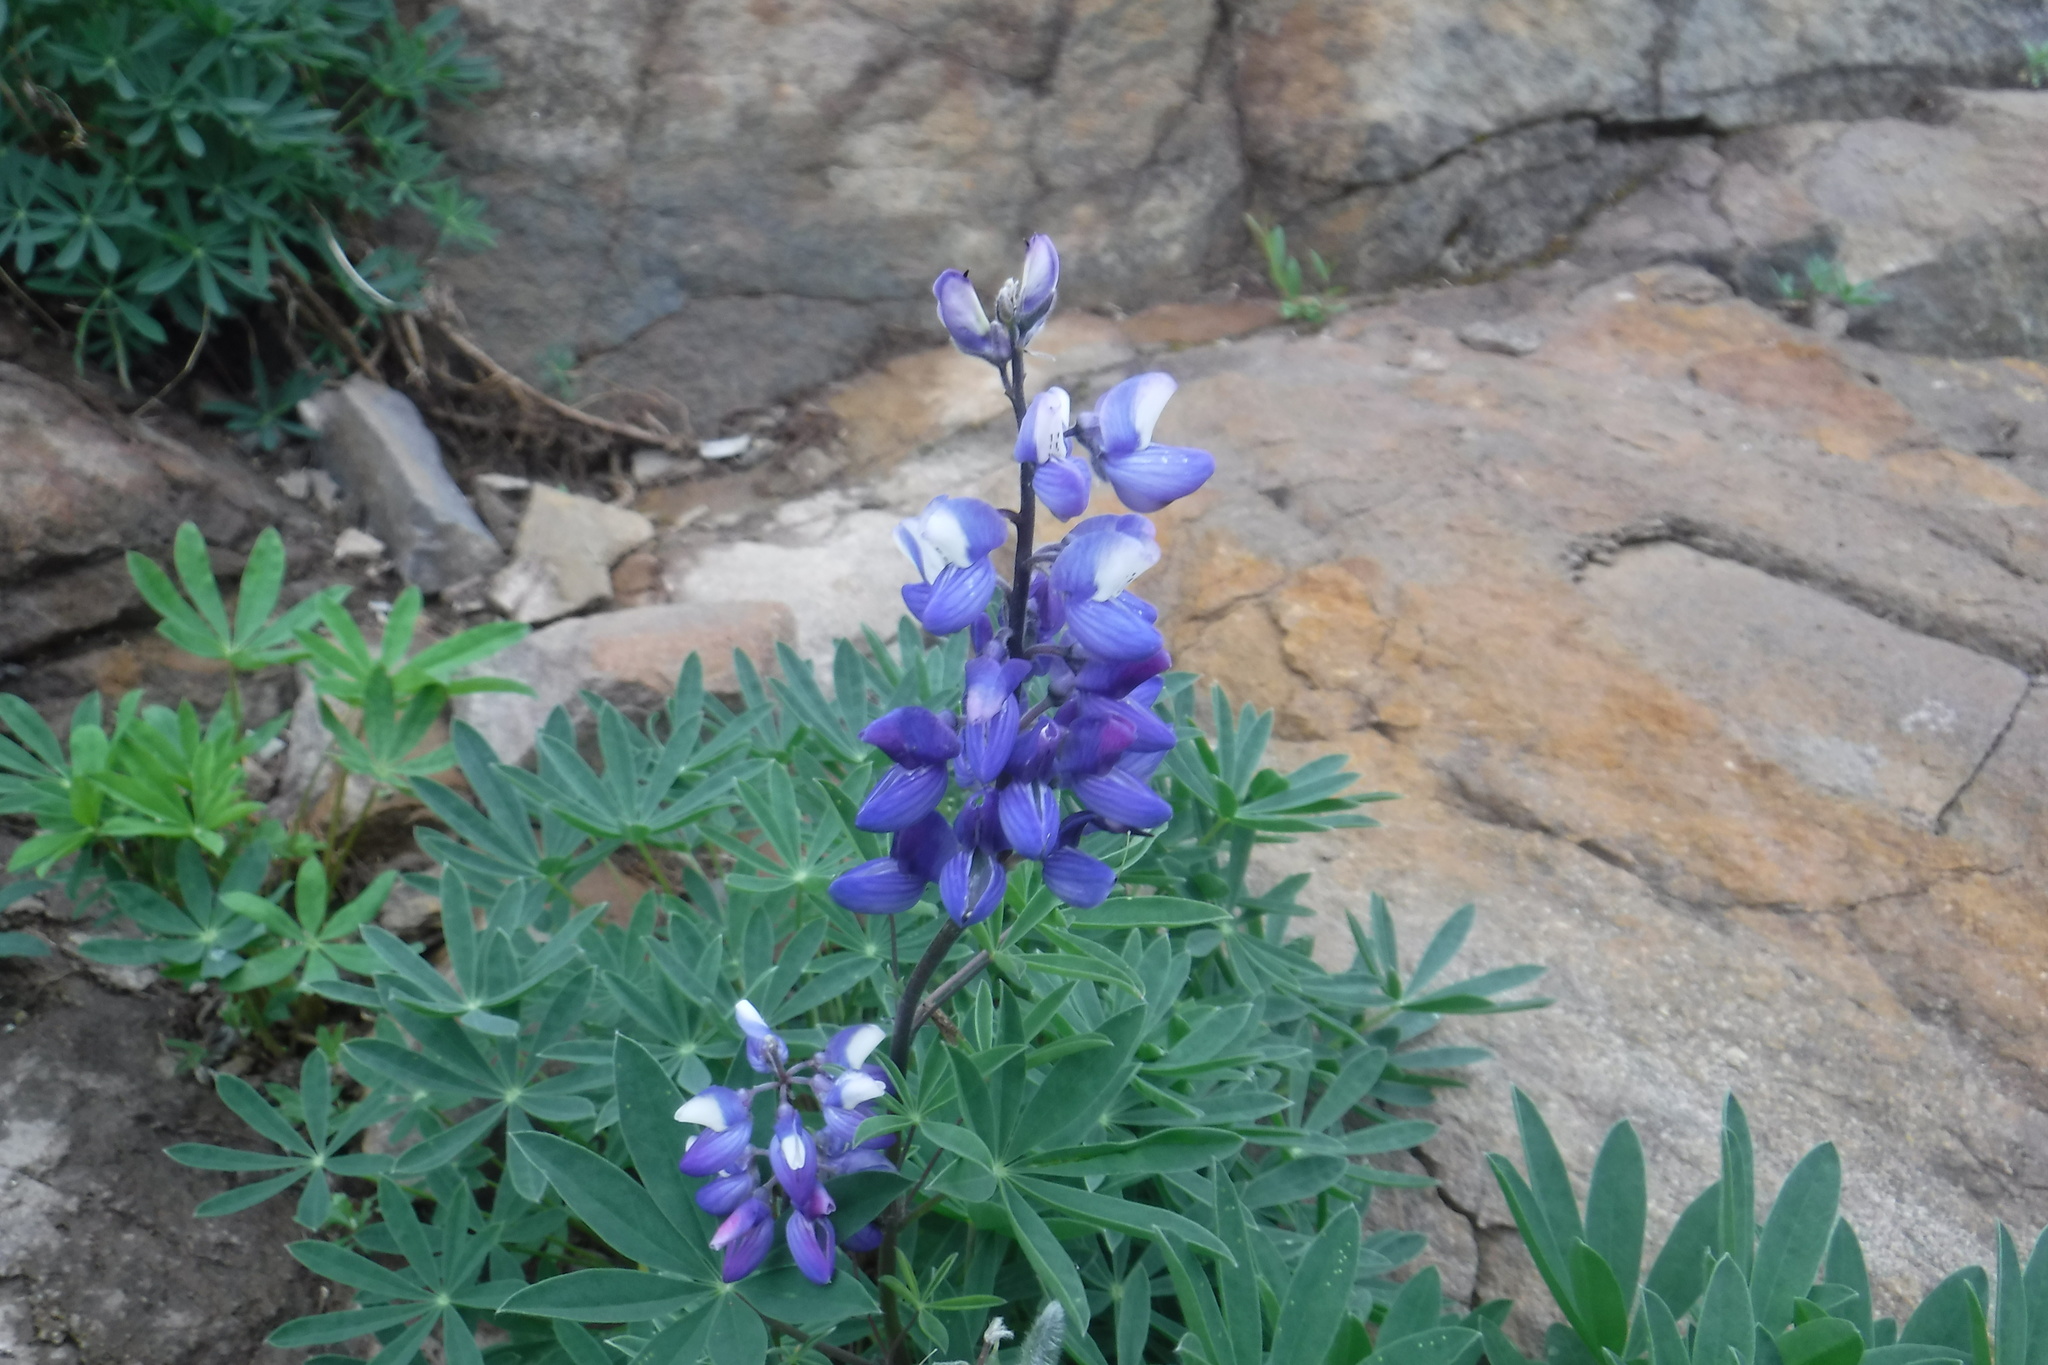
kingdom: Plantae
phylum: Tracheophyta
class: Magnoliopsida
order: Fabales
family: Fabaceae
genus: Lupinus
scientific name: Lupinus arcticus
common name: Arctic lupine
